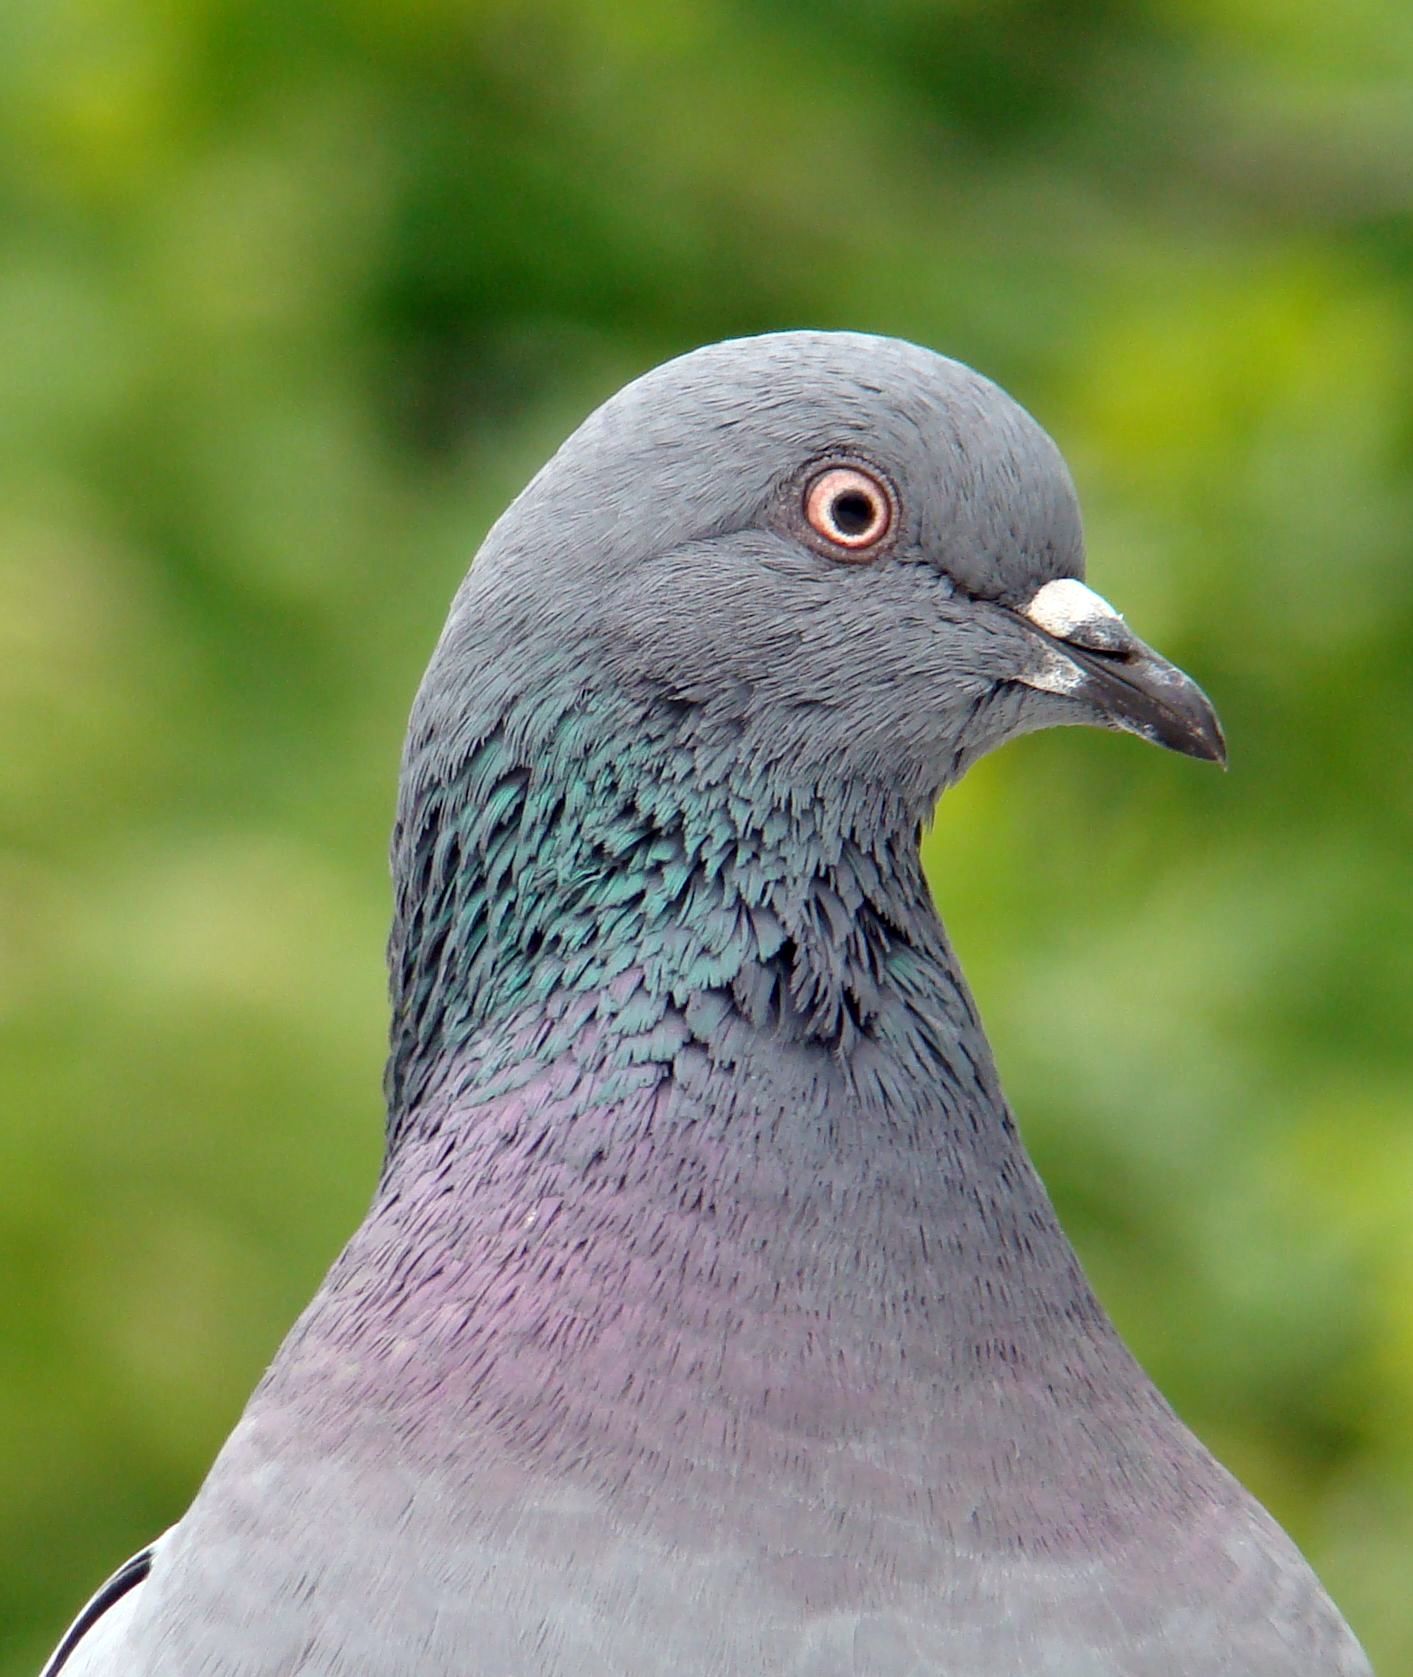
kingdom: Animalia
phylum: Chordata
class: Aves
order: Columbiformes
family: Columbidae
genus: Columba
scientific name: Columba livia
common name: Rock pigeon
